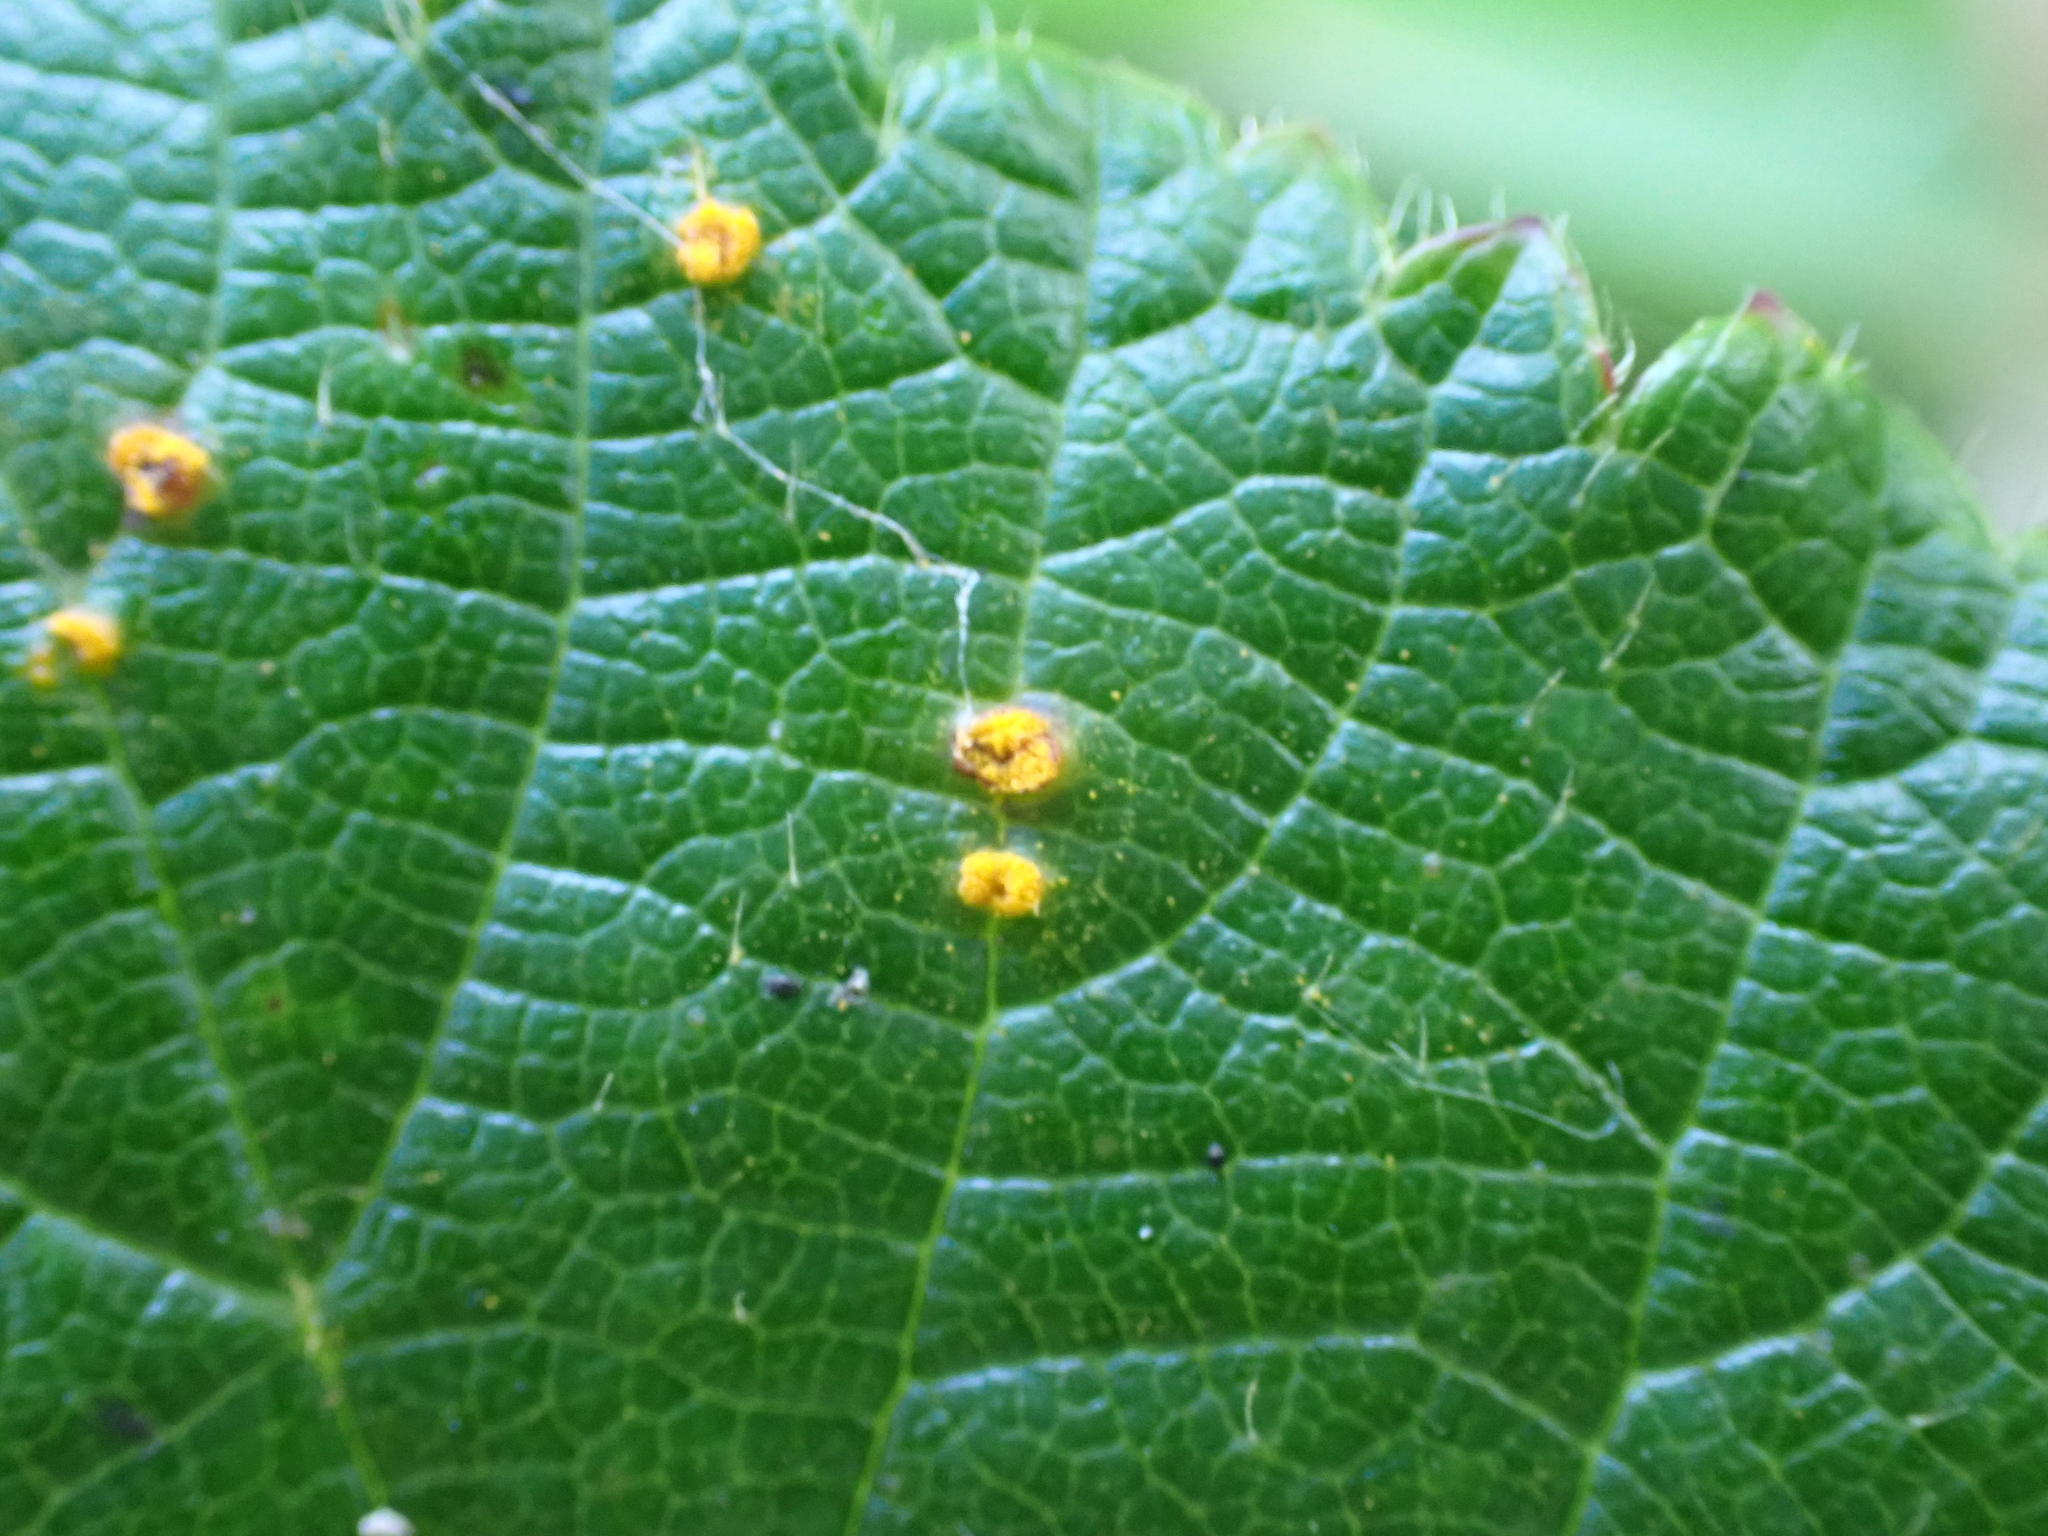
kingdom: Fungi
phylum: Basidiomycota
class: Pucciniomycetes
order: Pucciniales
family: Phragmidiaceae
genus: Kuehneola
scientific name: Kuehneola uredinis
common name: Bramble stem rust
